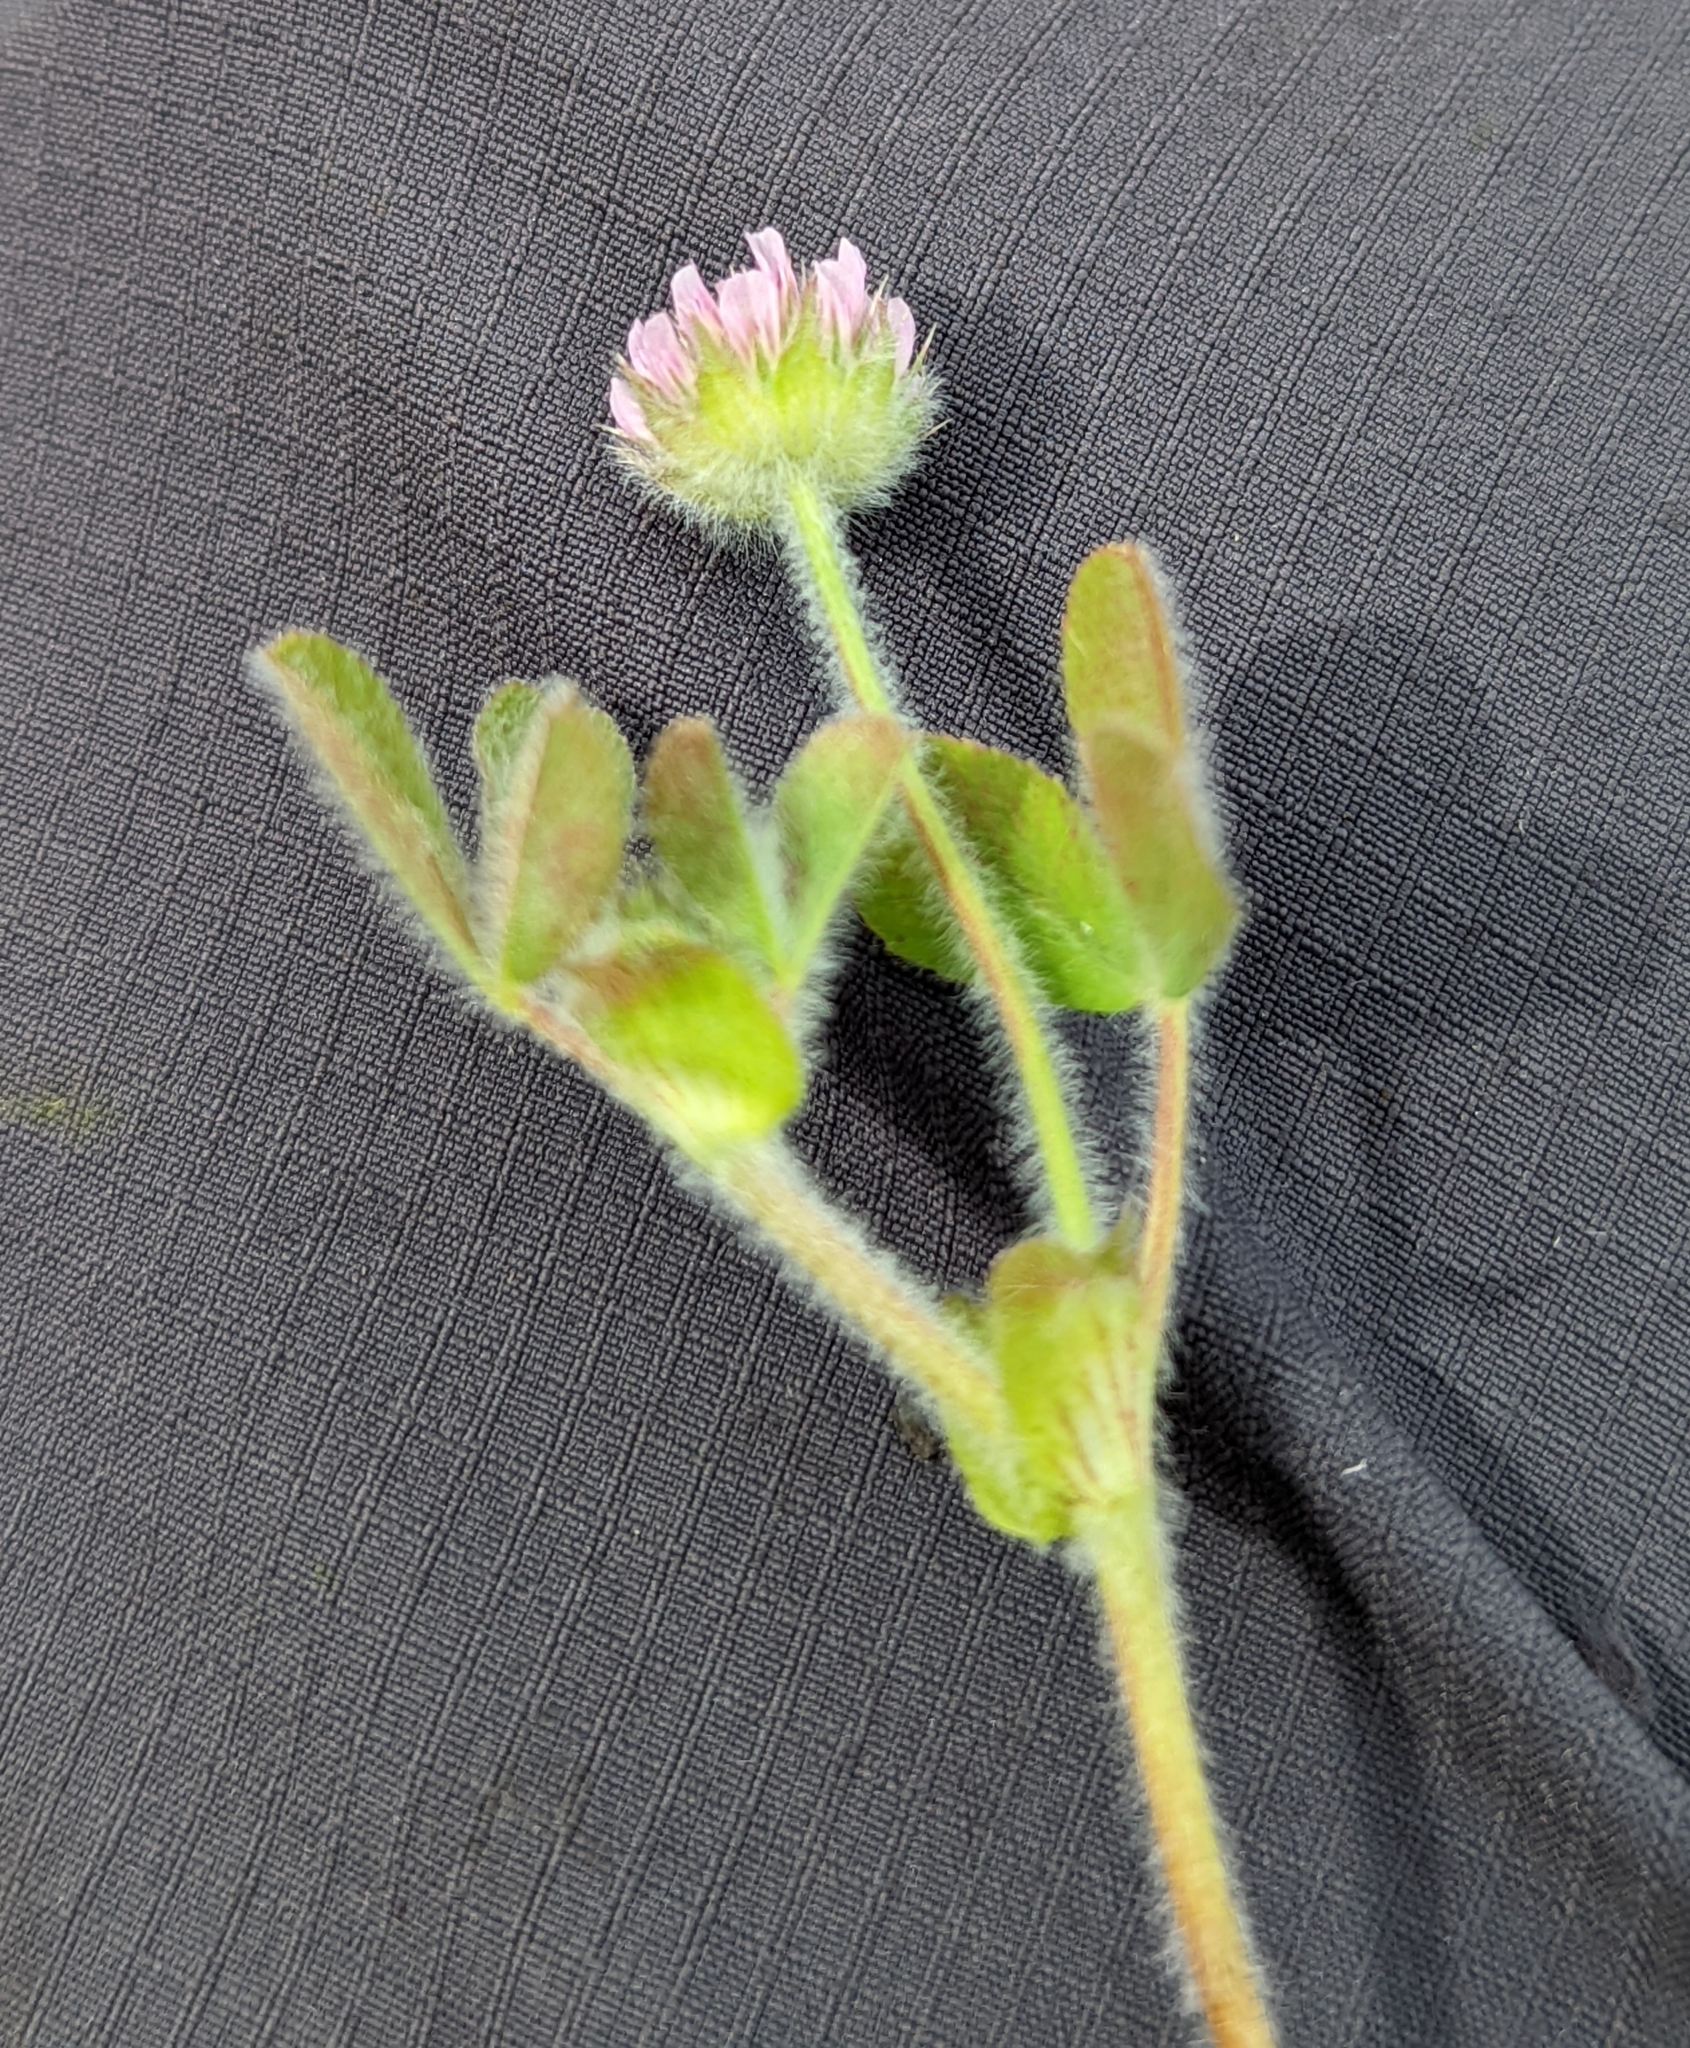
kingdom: Plantae
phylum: Tracheophyta
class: Magnoliopsida
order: Fabales
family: Fabaceae
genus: Trifolium
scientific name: Trifolium microcephalum
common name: Maiden clover
